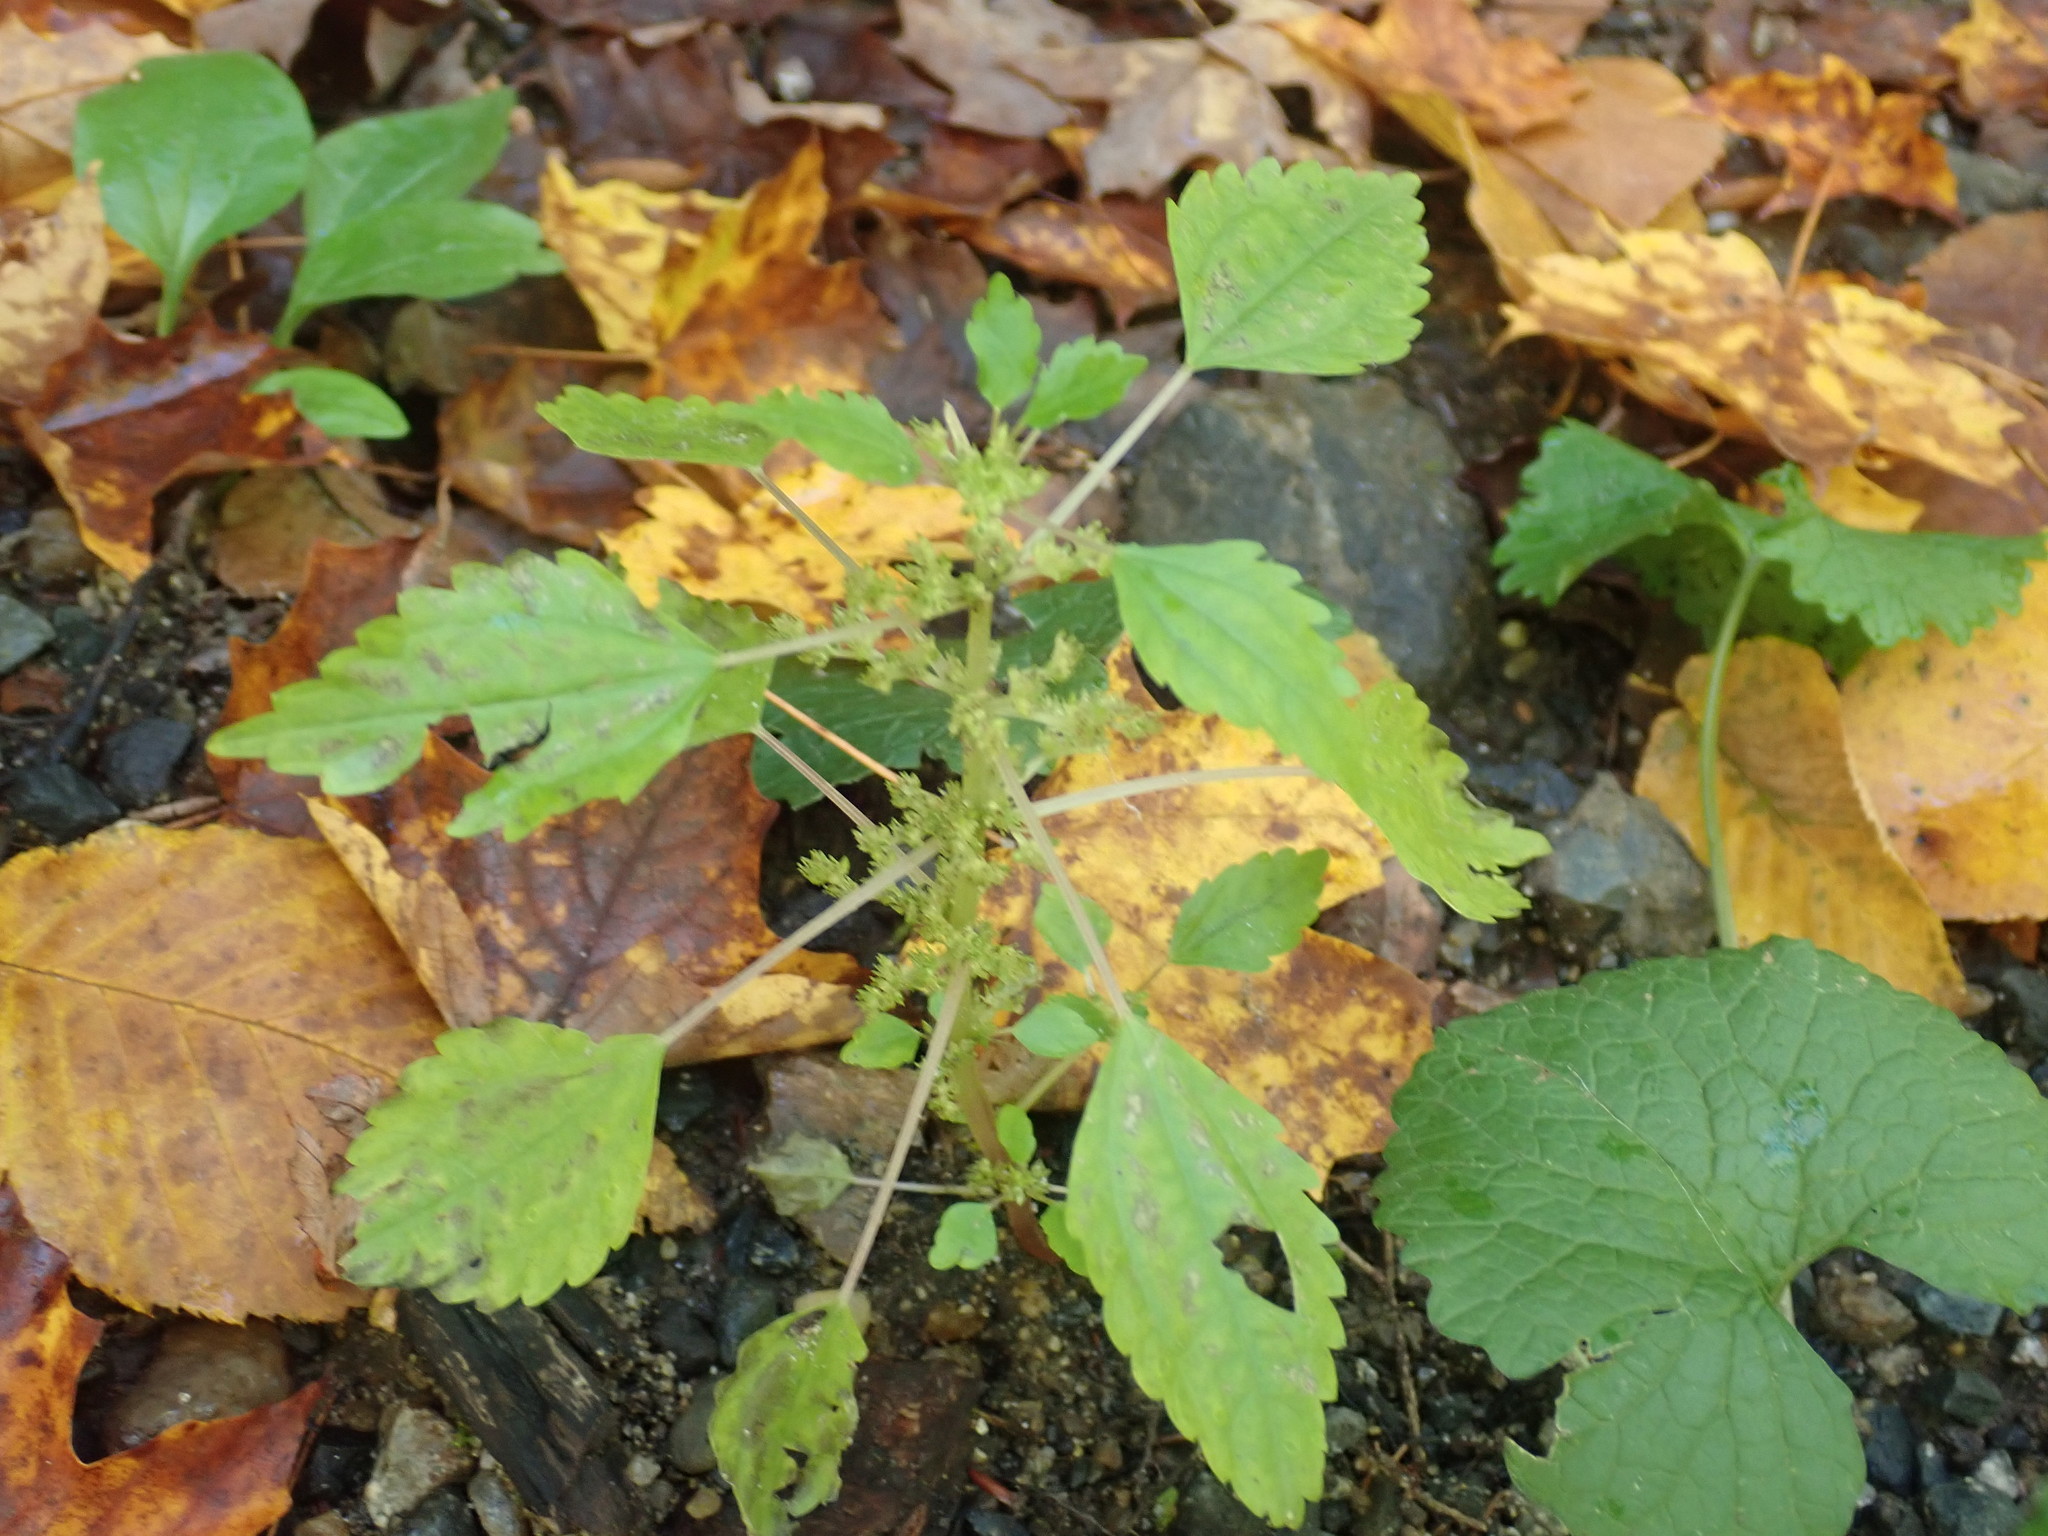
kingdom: Plantae
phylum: Tracheophyta
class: Magnoliopsida
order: Rosales
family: Urticaceae
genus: Pilea
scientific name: Pilea pumila
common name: Clearweed
